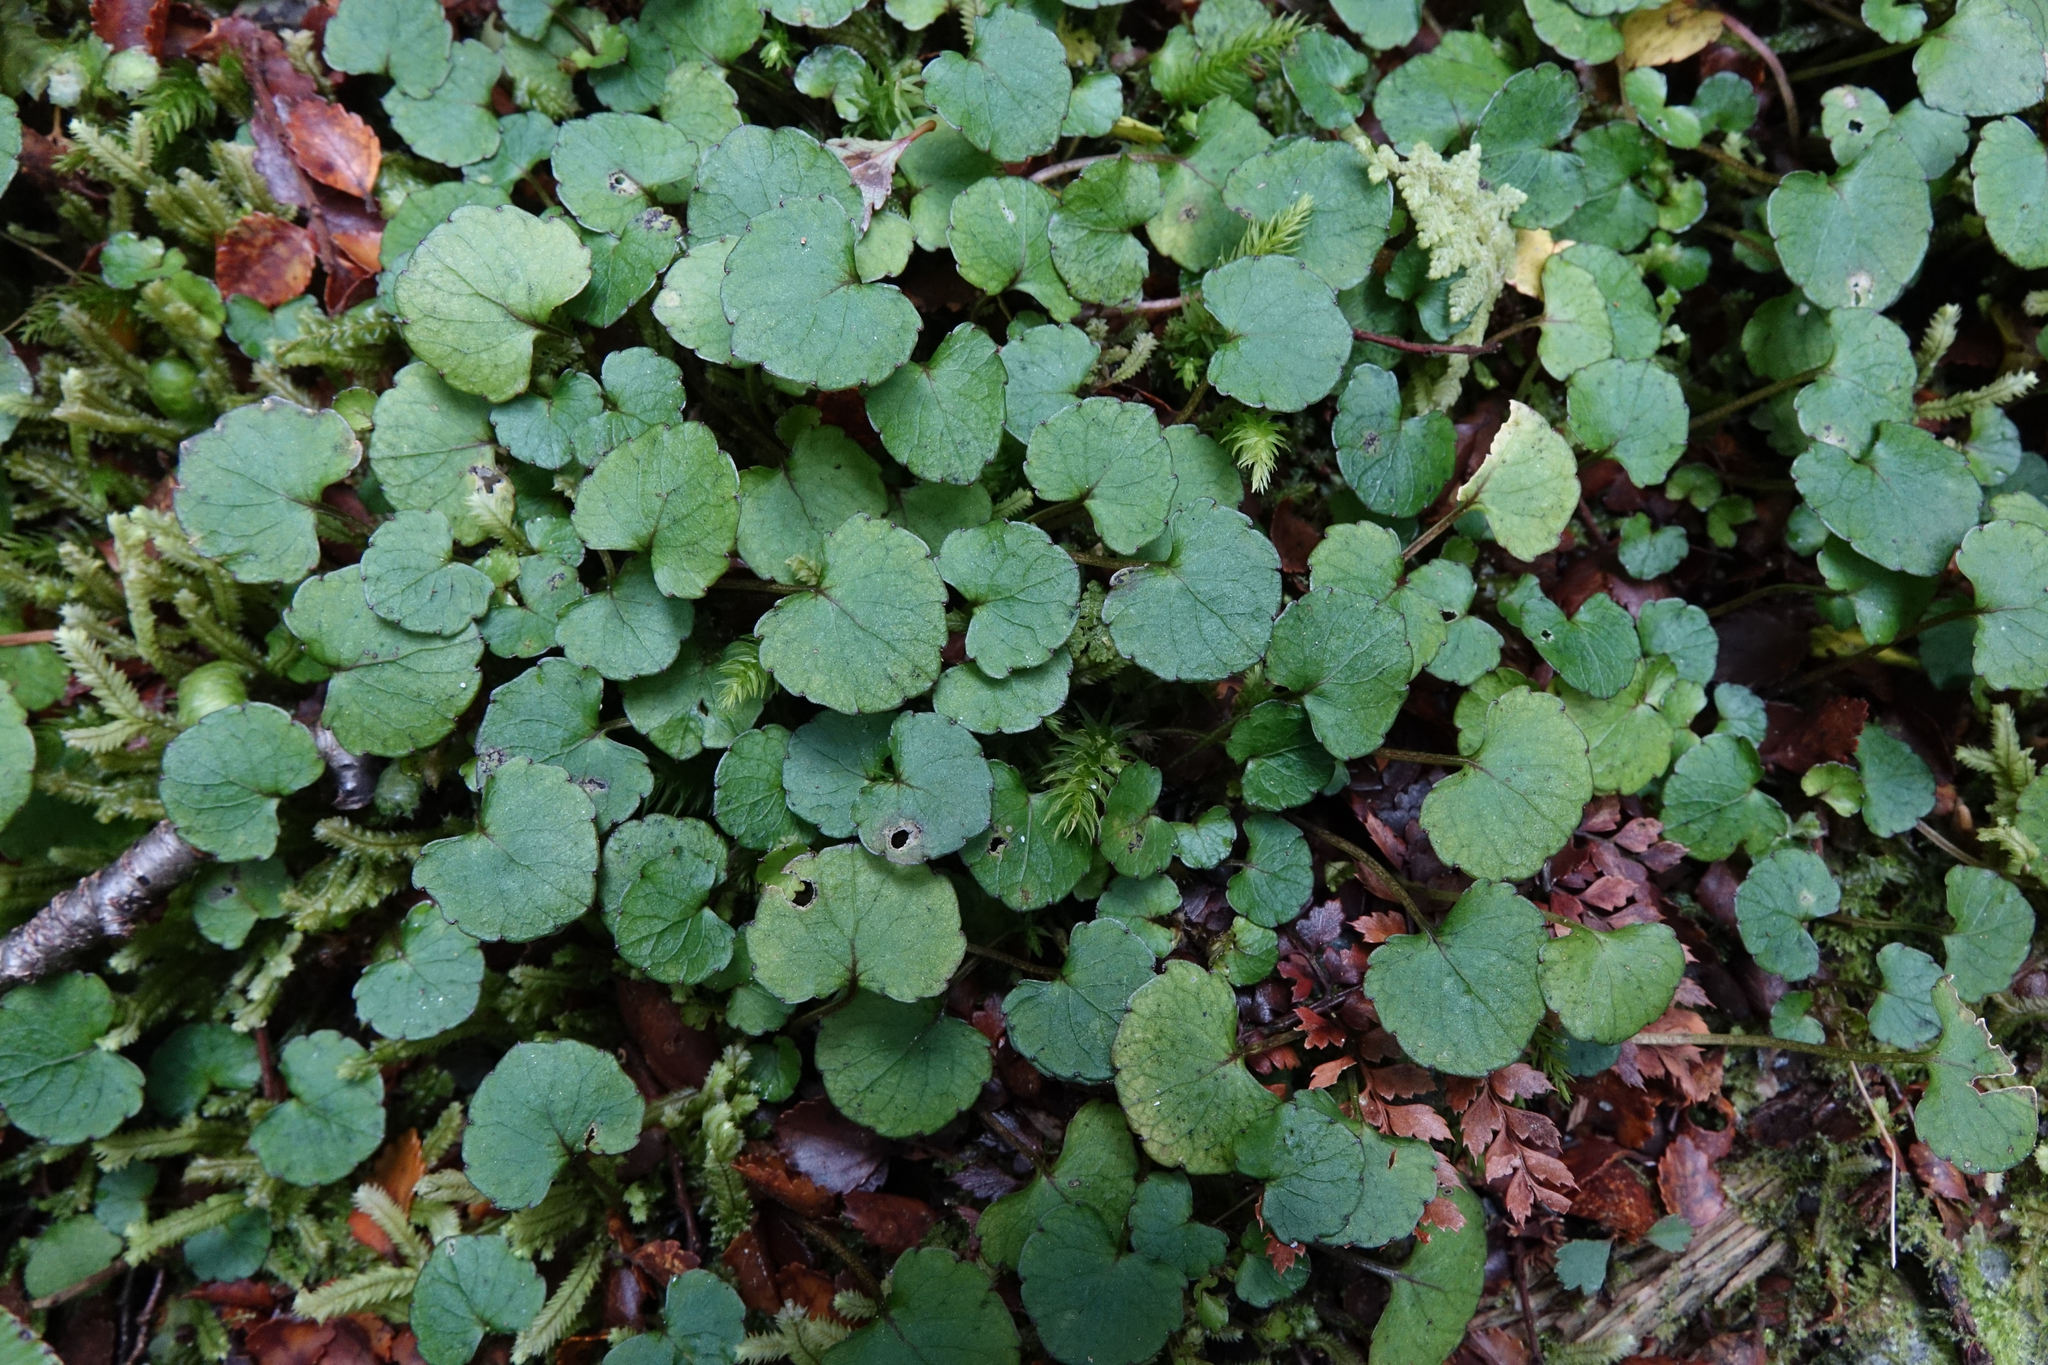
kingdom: Plantae
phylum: Tracheophyta
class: Magnoliopsida
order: Malpighiales
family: Violaceae
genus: Viola
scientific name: Viola filicaulis
